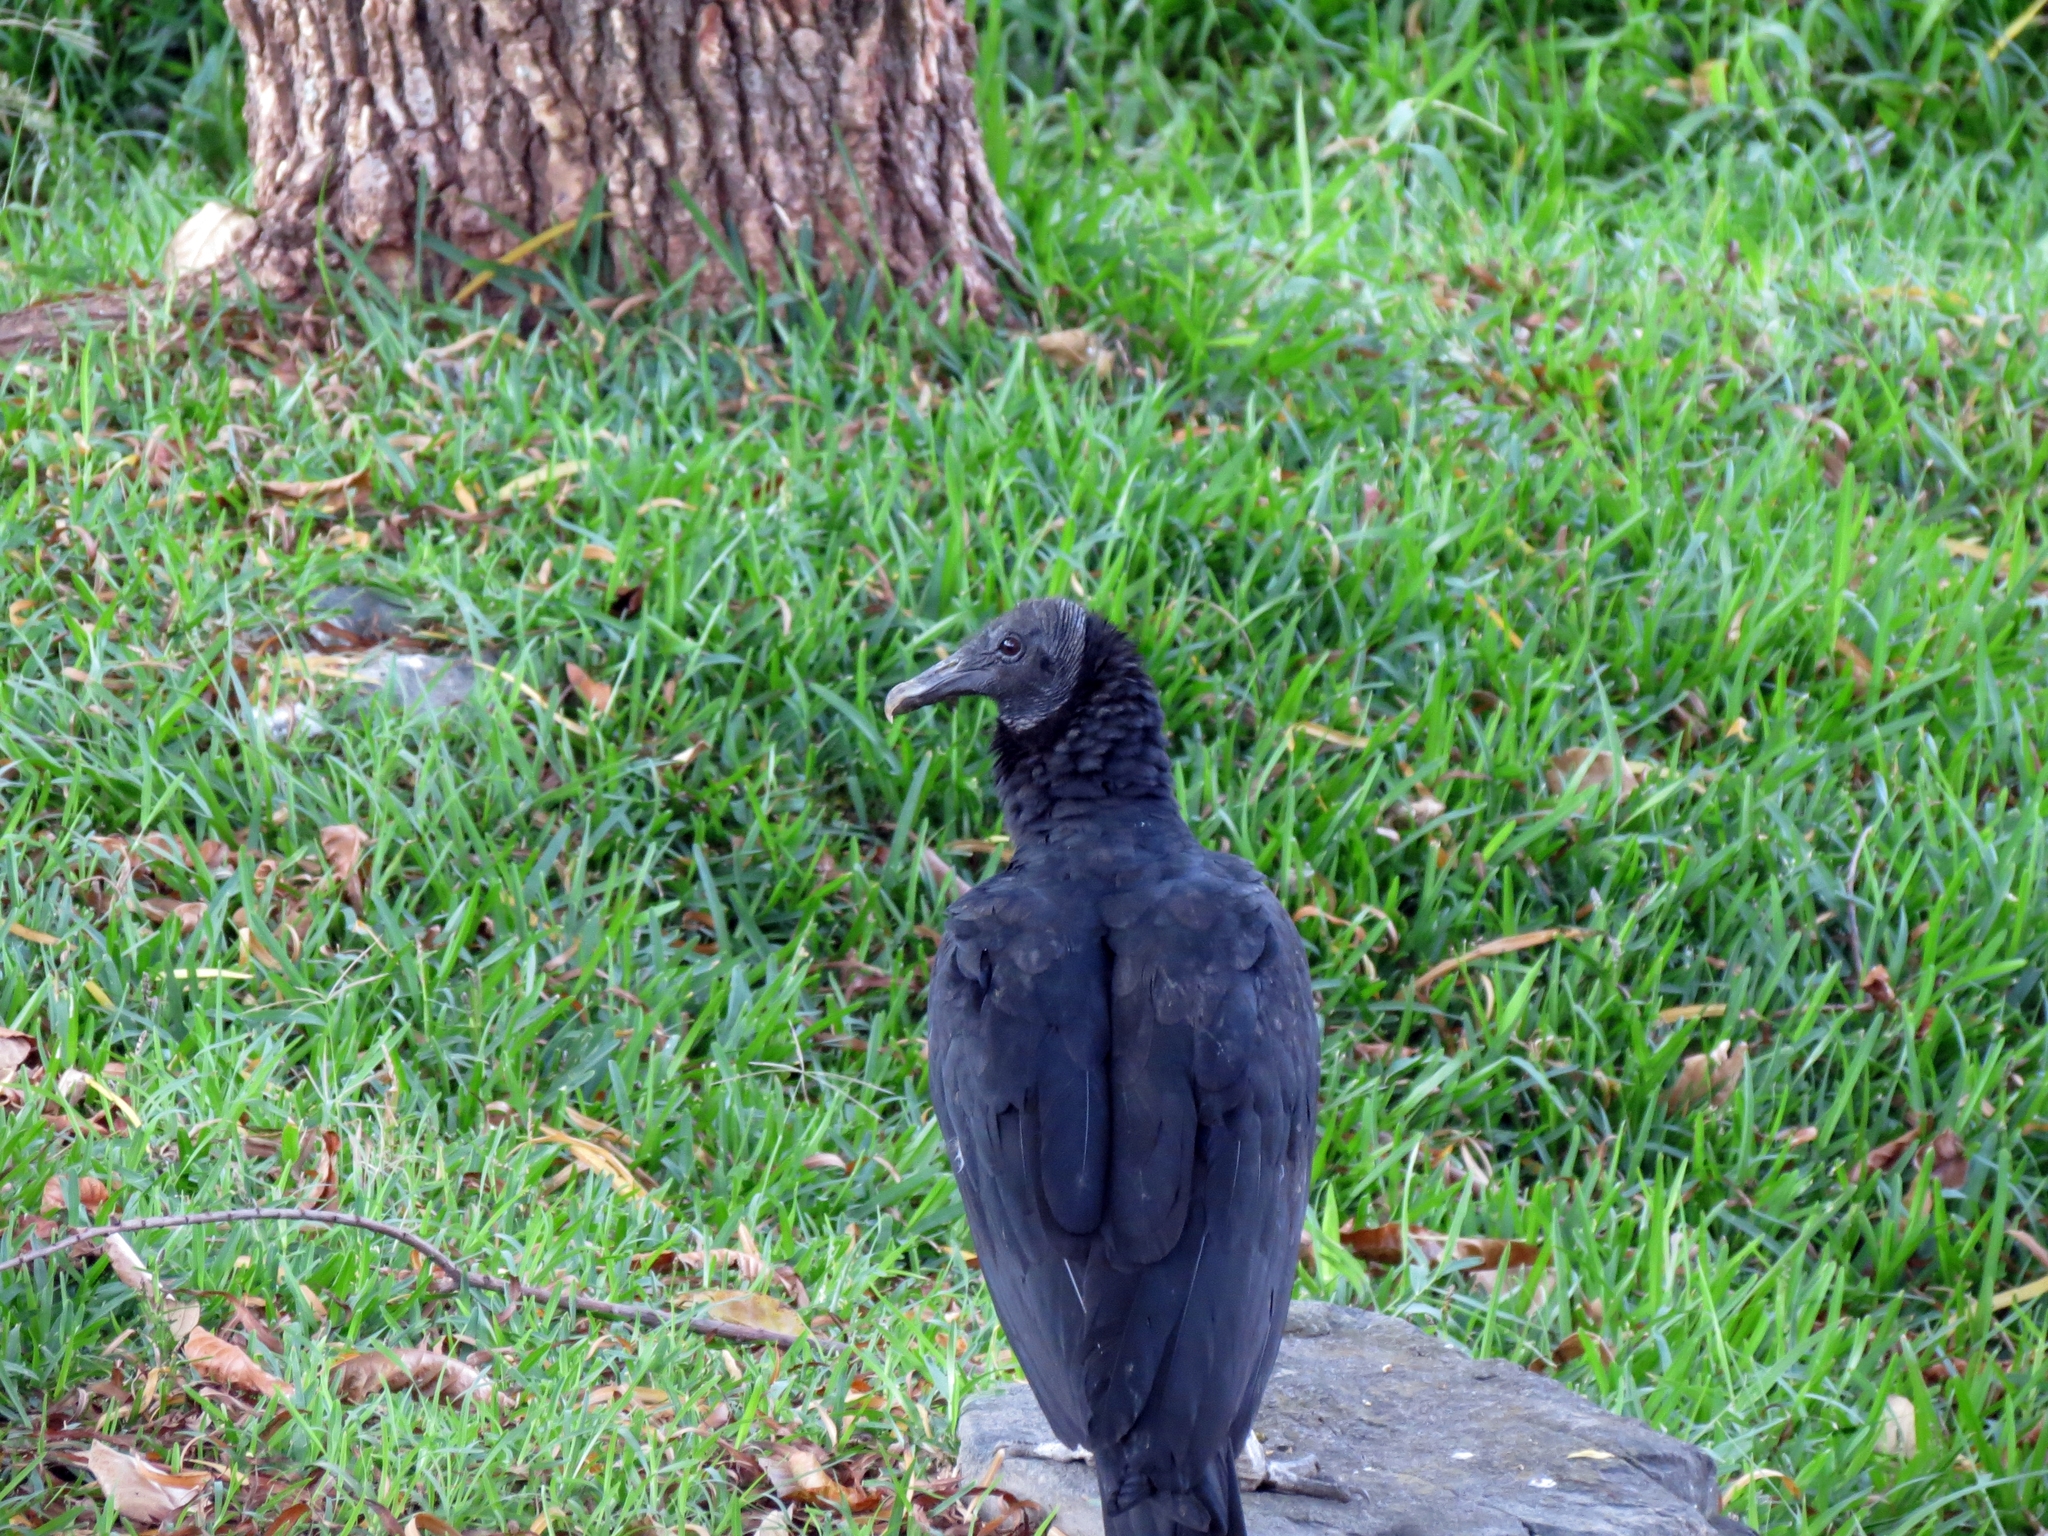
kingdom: Animalia
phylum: Chordata
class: Aves
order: Accipitriformes
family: Cathartidae
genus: Coragyps
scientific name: Coragyps atratus
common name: Black vulture
